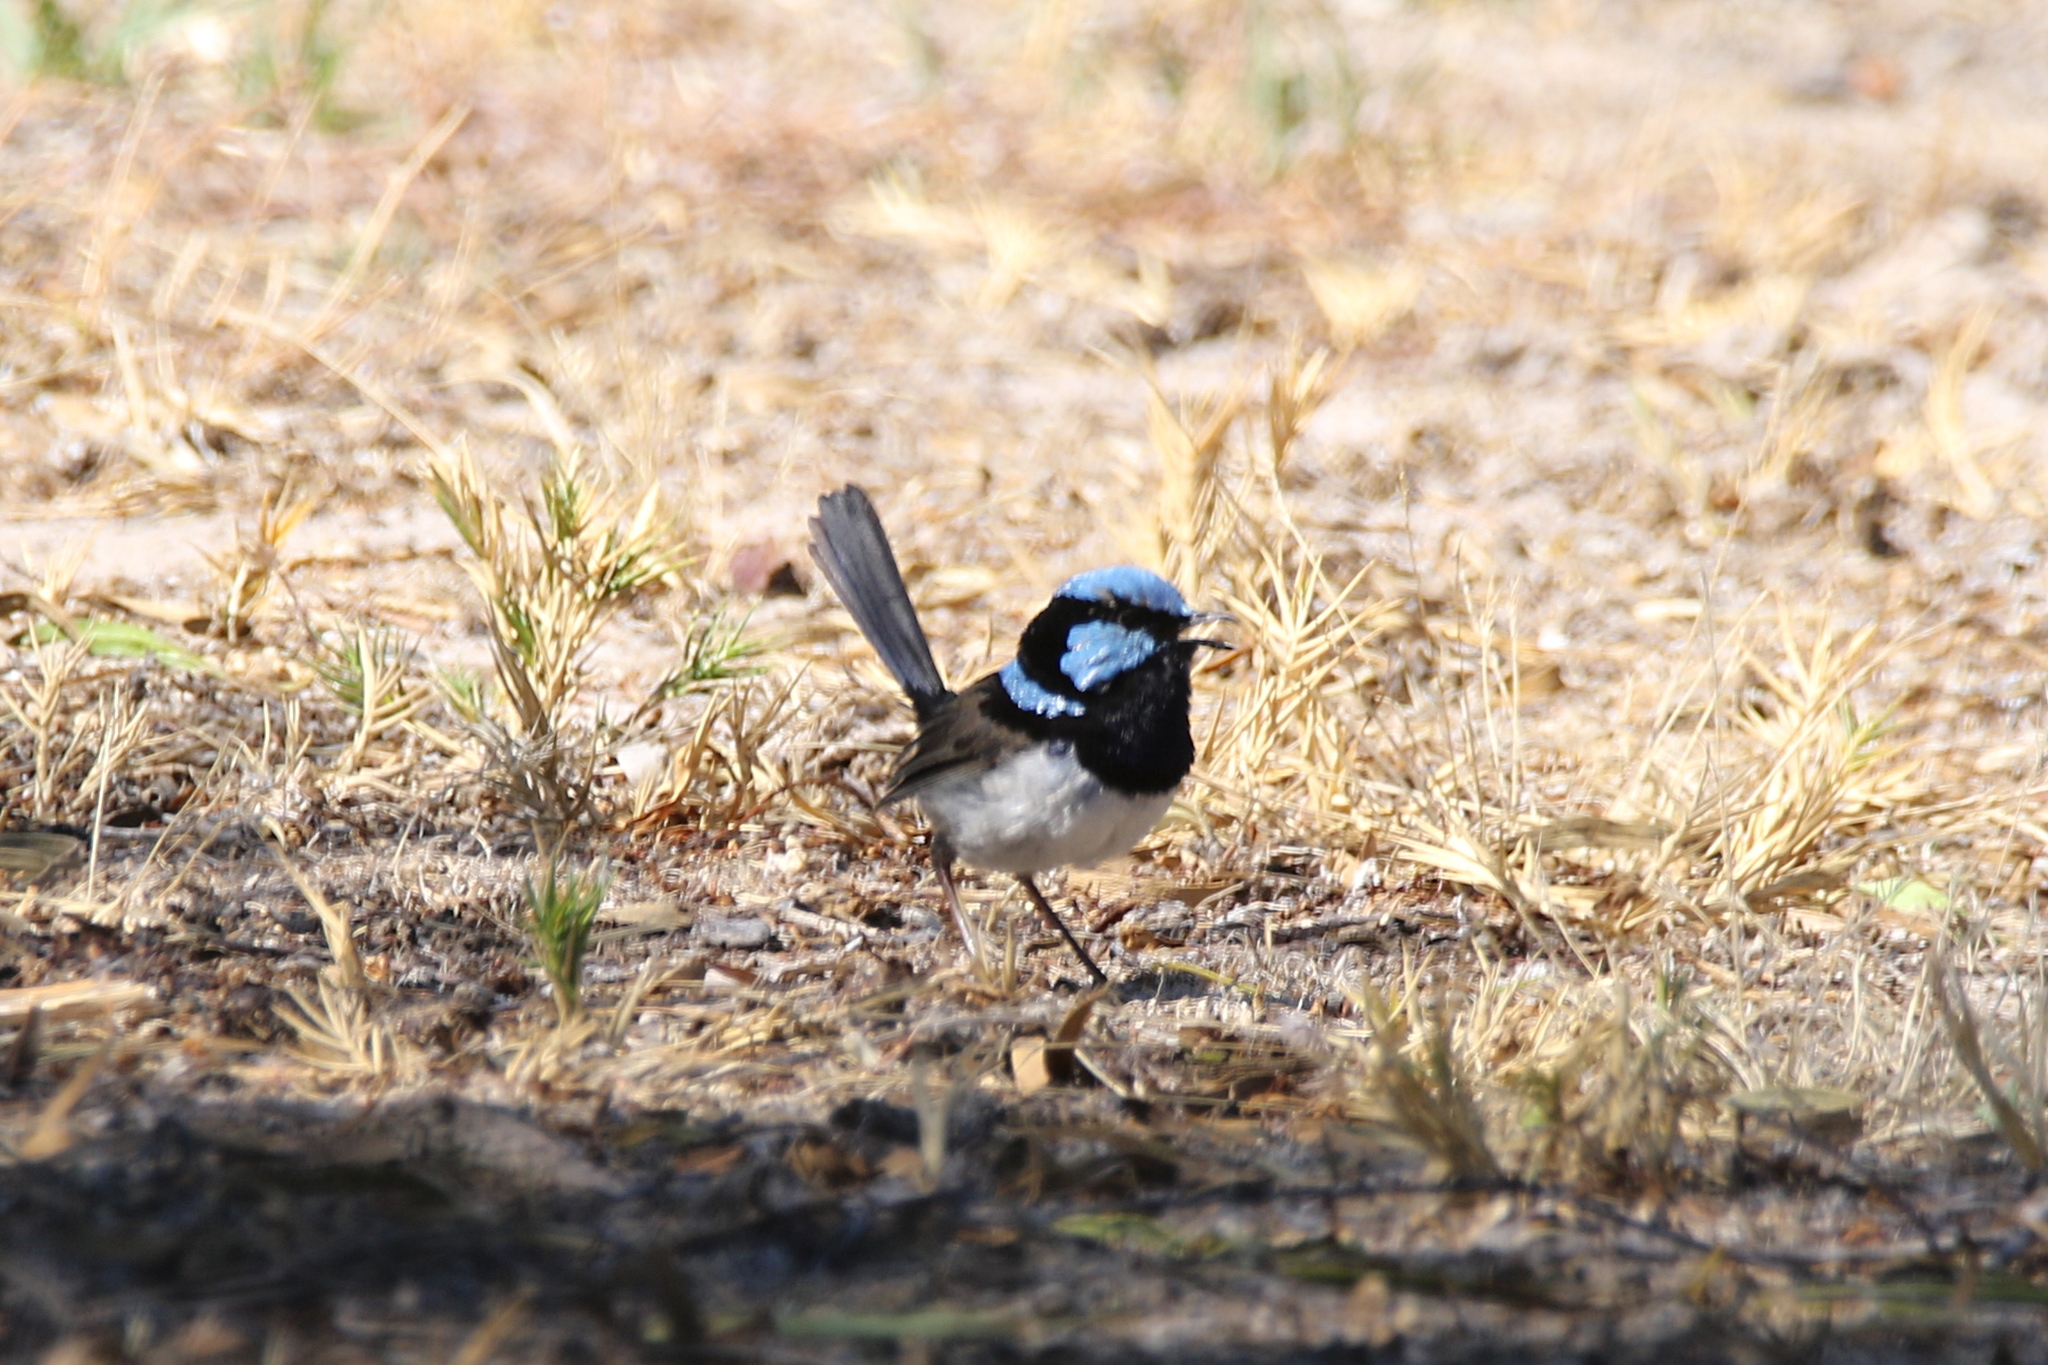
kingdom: Animalia
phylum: Chordata
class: Aves
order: Passeriformes
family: Maluridae
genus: Malurus
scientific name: Malurus cyaneus
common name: Superb fairywren
